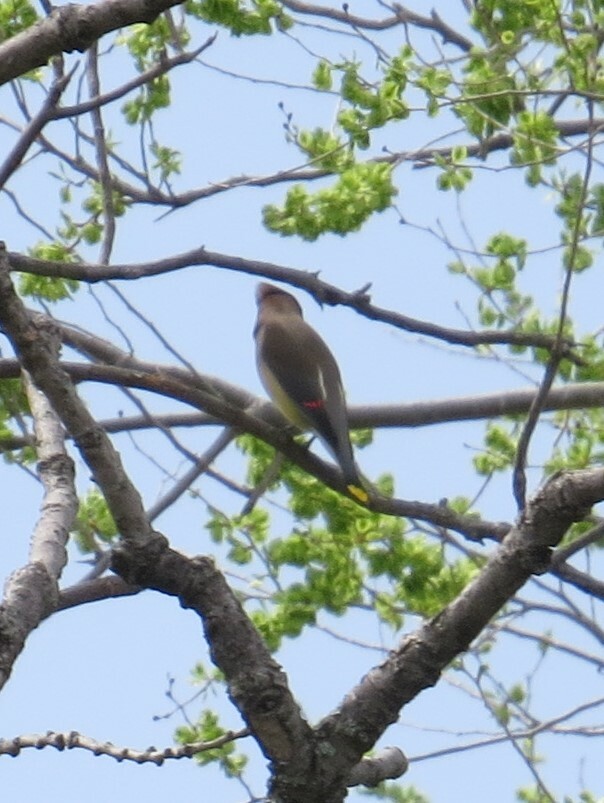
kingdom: Animalia
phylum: Chordata
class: Aves
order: Passeriformes
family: Bombycillidae
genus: Bombycilla
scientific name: Bombycilla cedrorum
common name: Cedar waxwing
